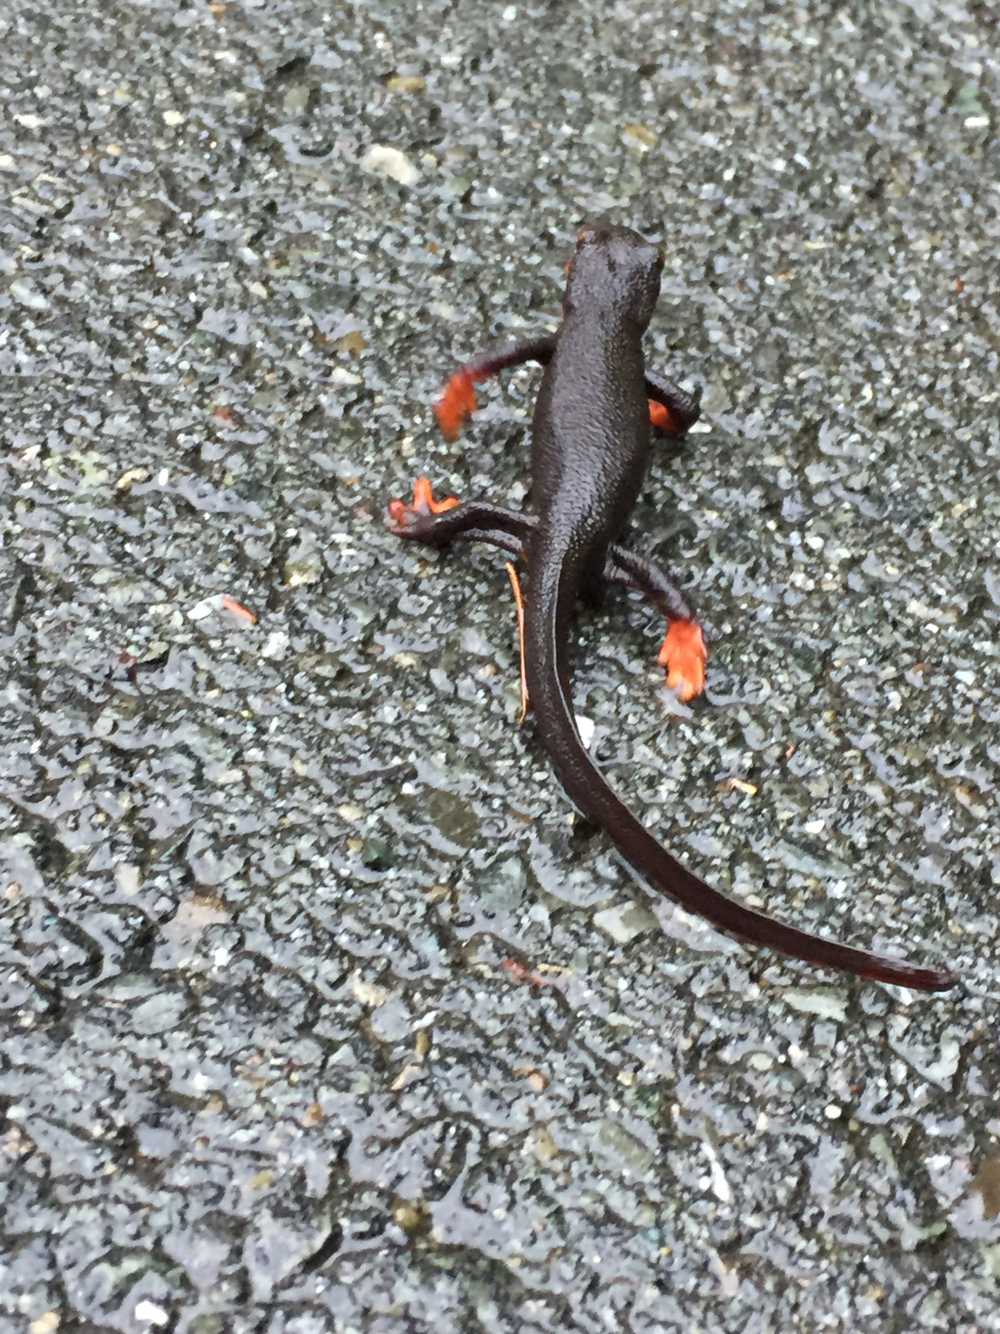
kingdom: Animalia
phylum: Chordata
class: Amphibia
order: Caudata
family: Salamandridae
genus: Taricha
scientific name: Taricha rivularis
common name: Red-bellied newt
